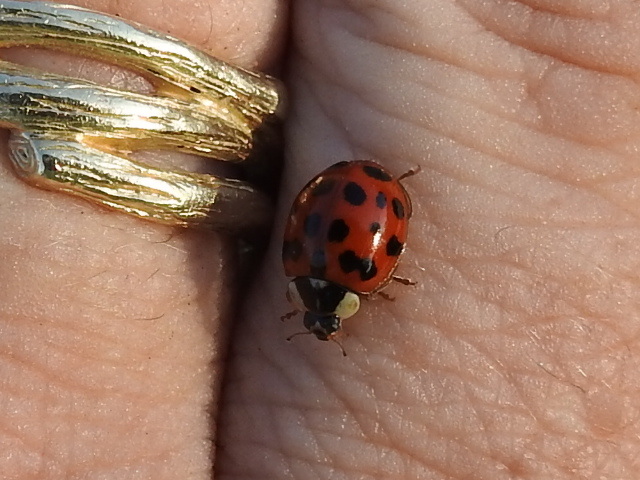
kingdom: Animalia
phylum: Arthropoda
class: Insecta
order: Coleoptera
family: Coccinellidae
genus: Harmonia
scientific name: Harmonia axyridis
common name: Harlequin ladybird
